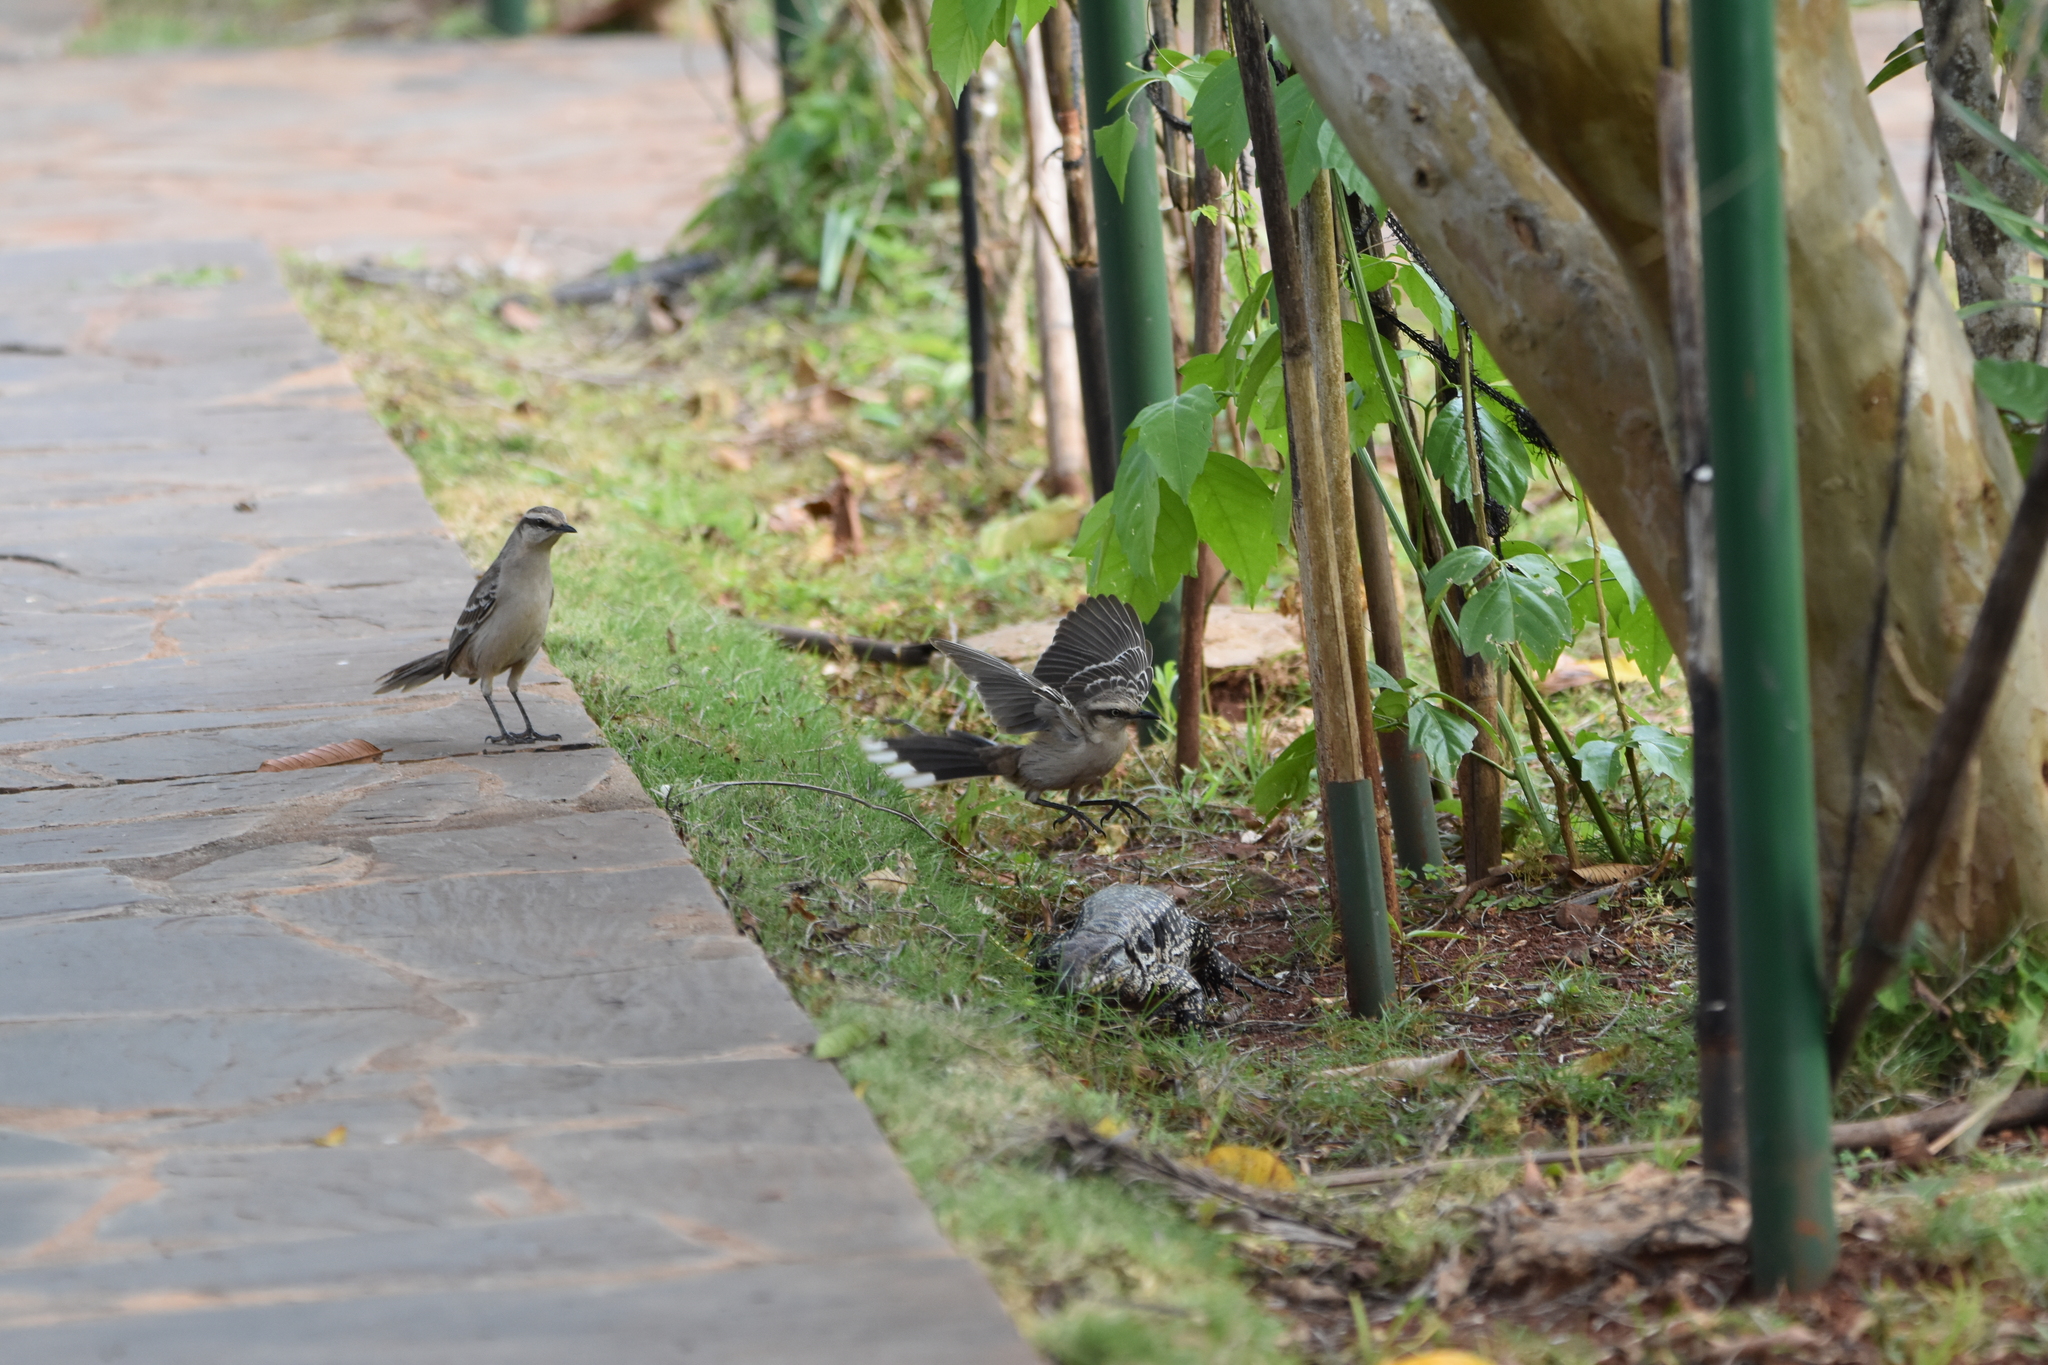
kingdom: Animalia
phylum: Chordata
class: Aves
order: Passeriformes
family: Mimidae
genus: Mimus
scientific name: Mimus saturninus
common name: Chalk-browed mockingbird
